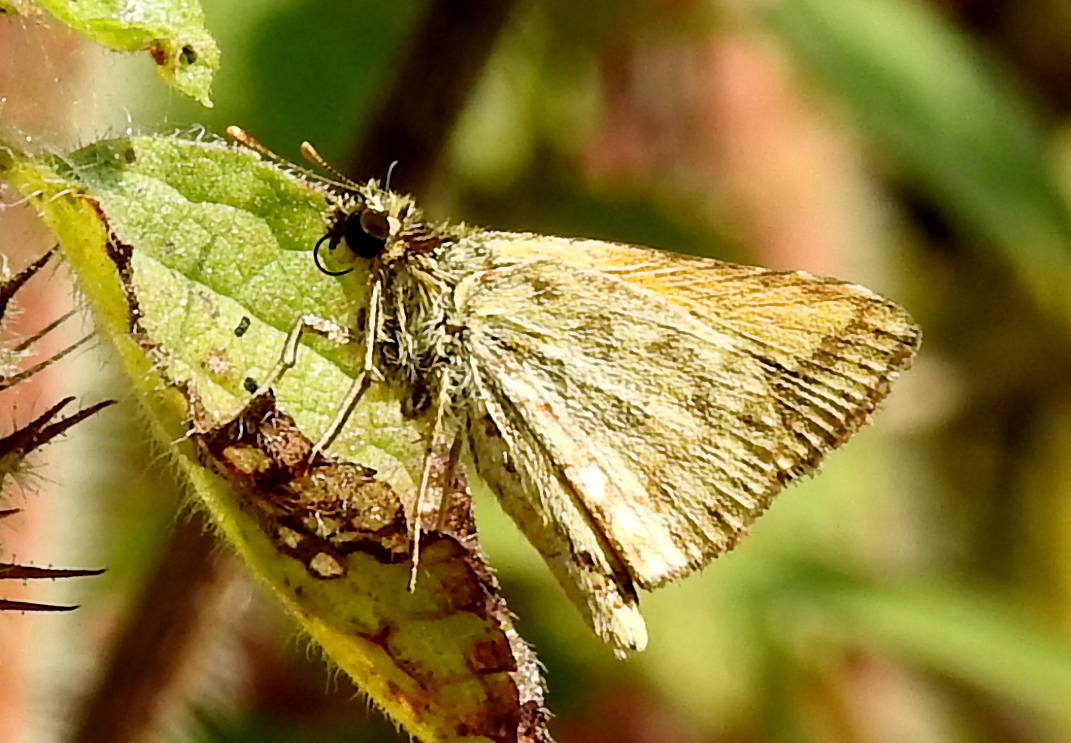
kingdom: Animalia
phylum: Arthropoda
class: Insecta
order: Lepidoptera
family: Hesperiidae
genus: Ampittia
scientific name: Ampittia dioscorides
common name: Common bush hopper
